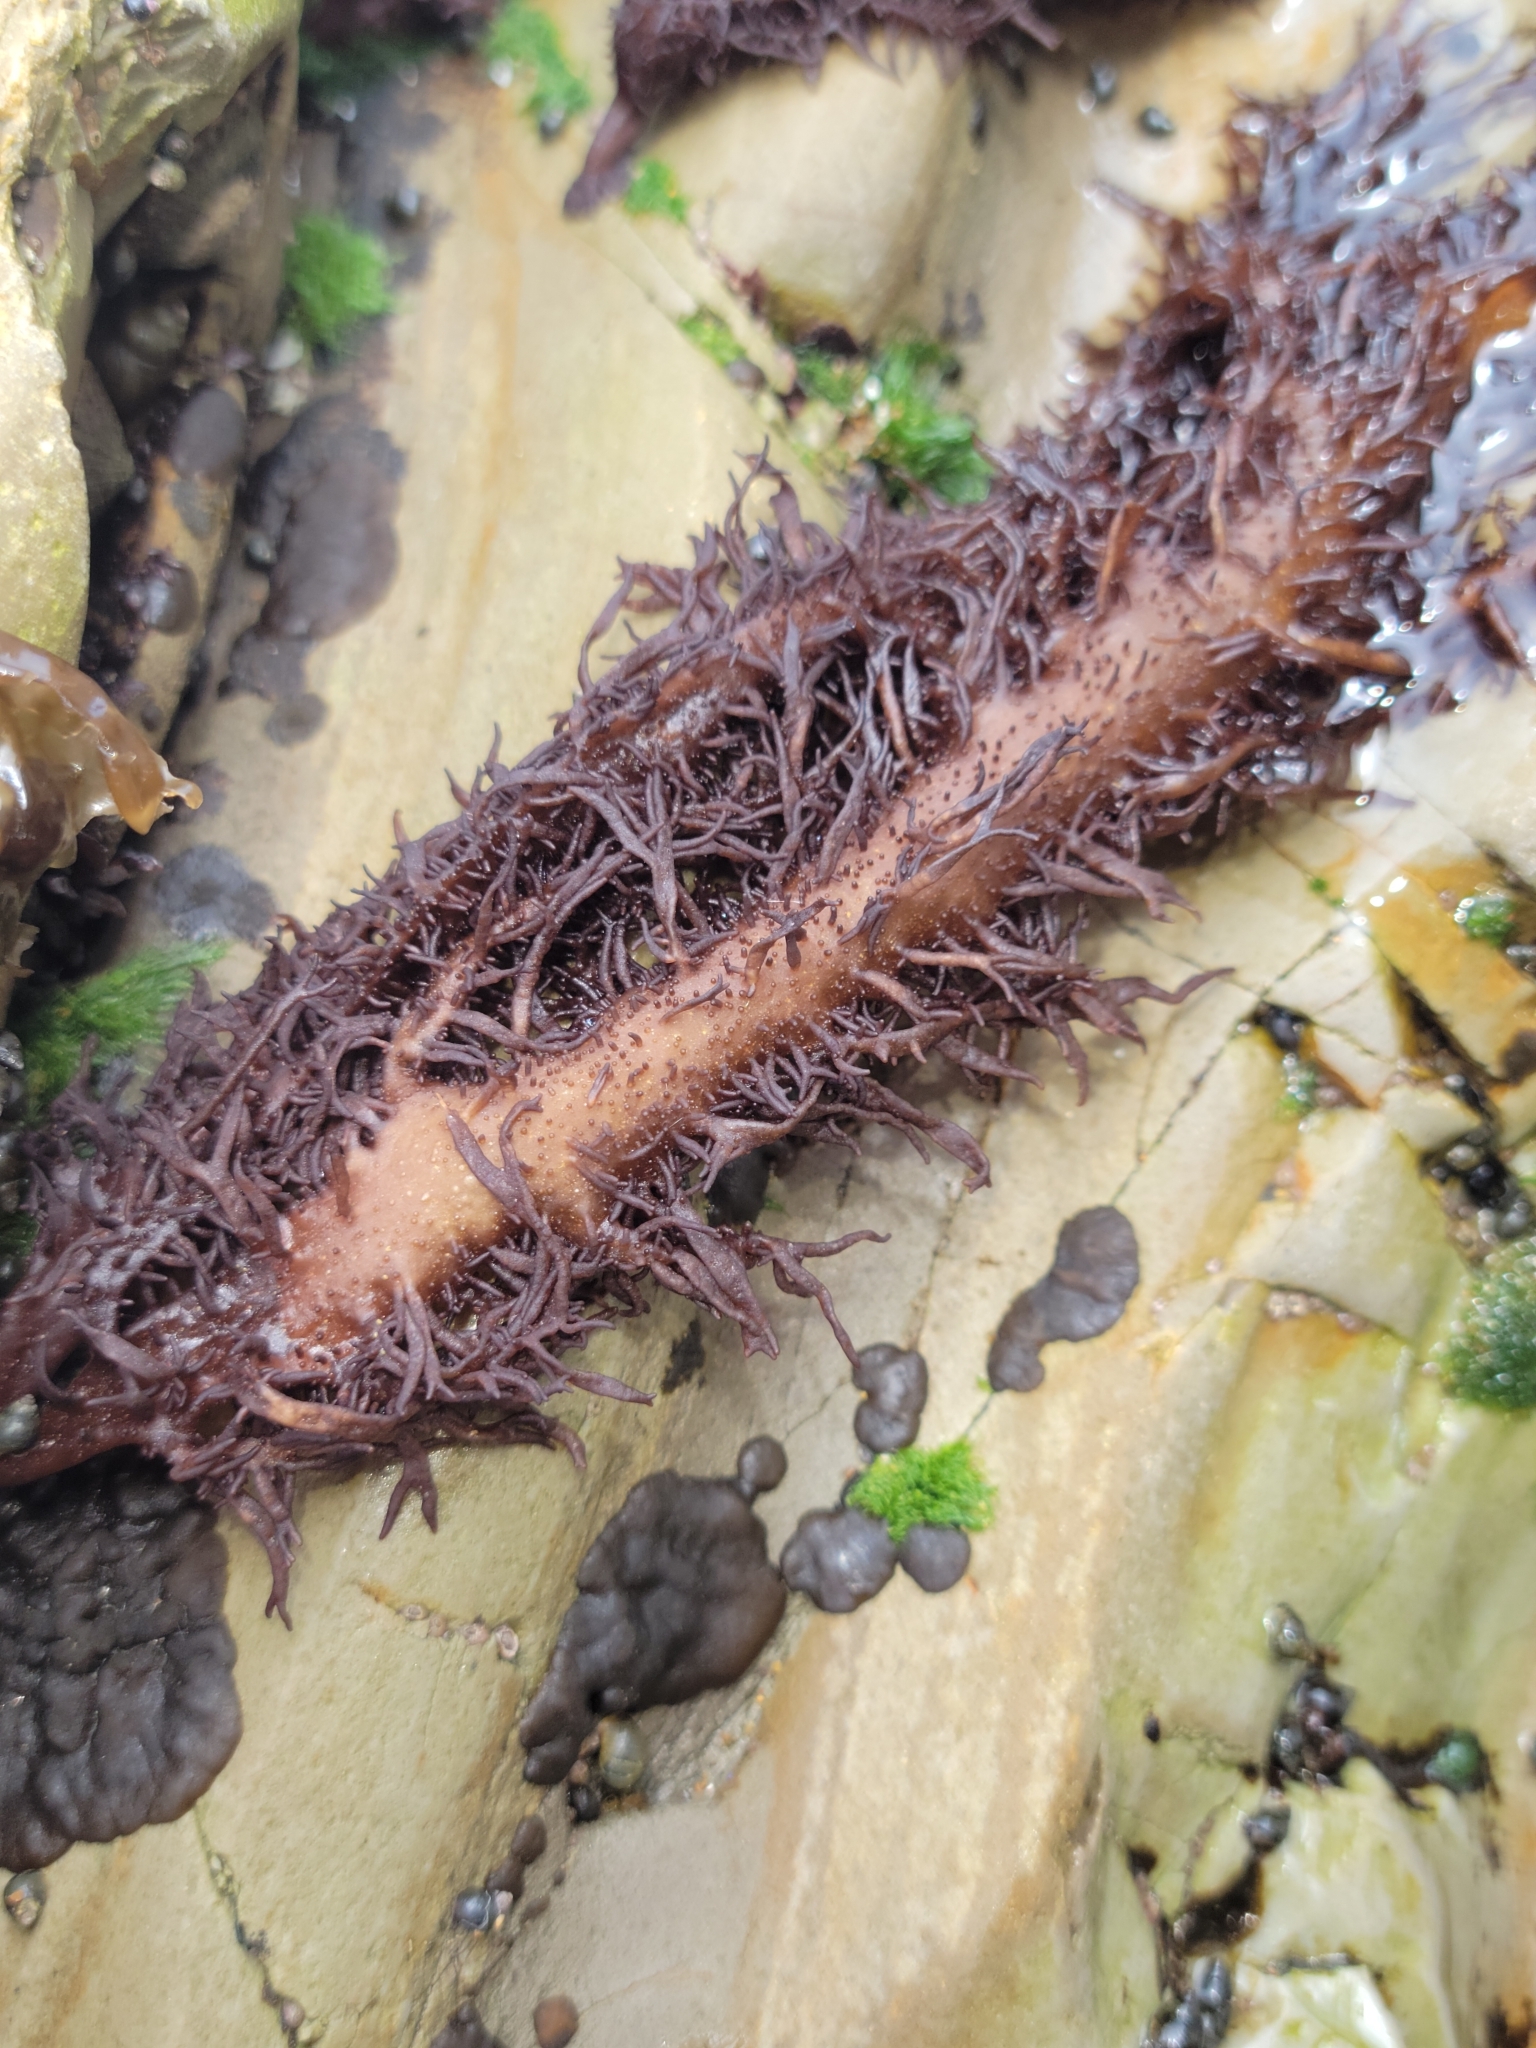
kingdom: Plantae
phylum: Rhodophyta
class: Florideophyceae
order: Nemaliales
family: Liagoraceae
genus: Cumagloia
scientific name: Cumagloia andersonii
